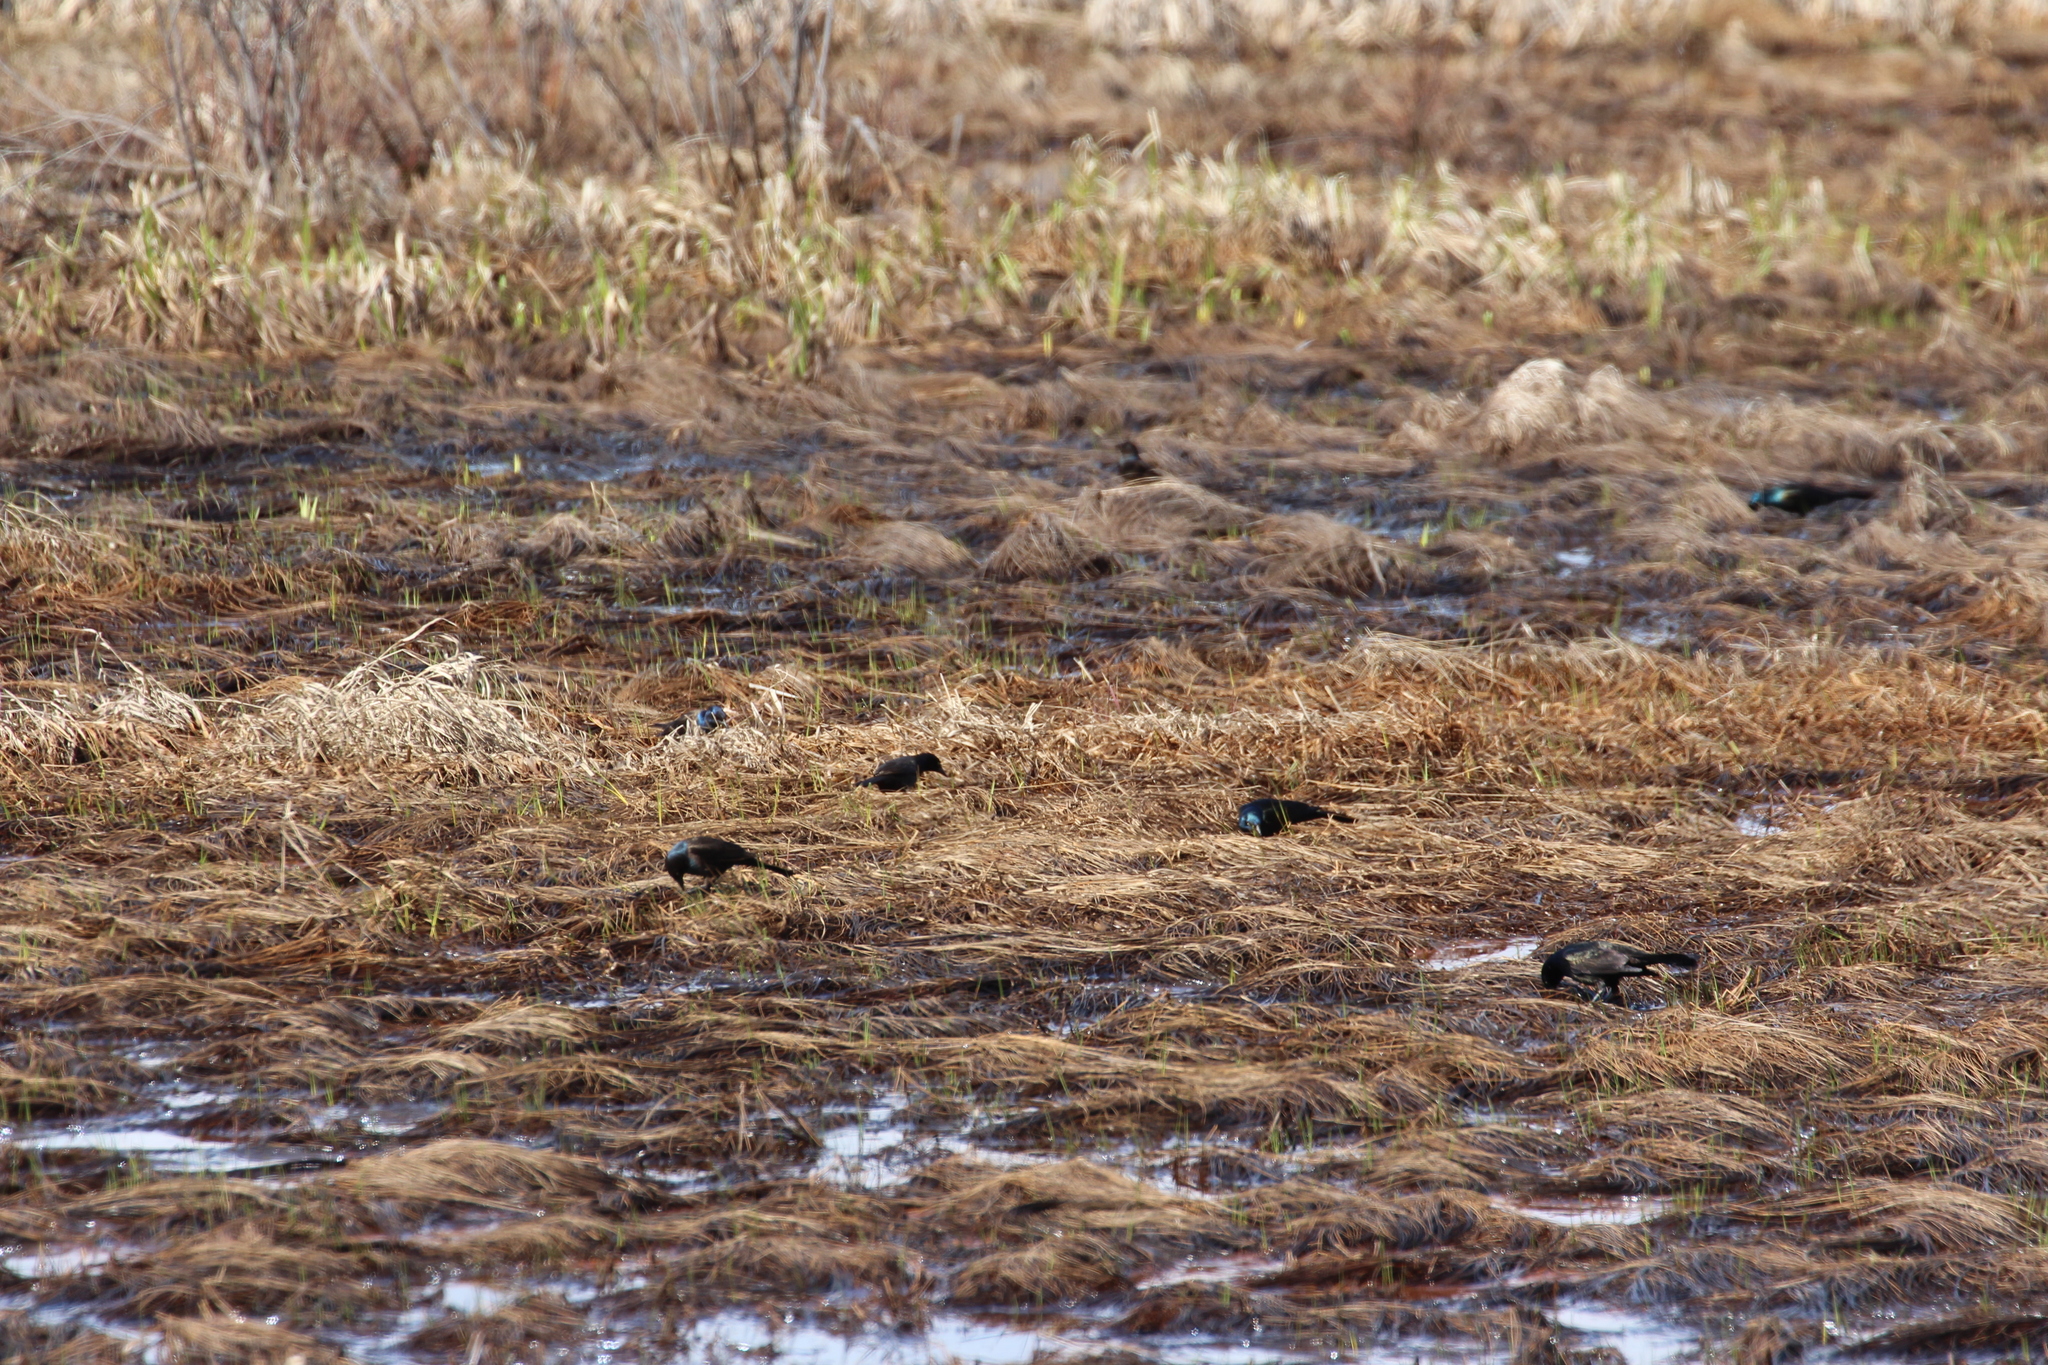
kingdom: Animalia
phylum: Chordata
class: Aves
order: Passeriformes
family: Icteridae
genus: Quiscalus
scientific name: Quiscalus quiscula
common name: Common grackle
